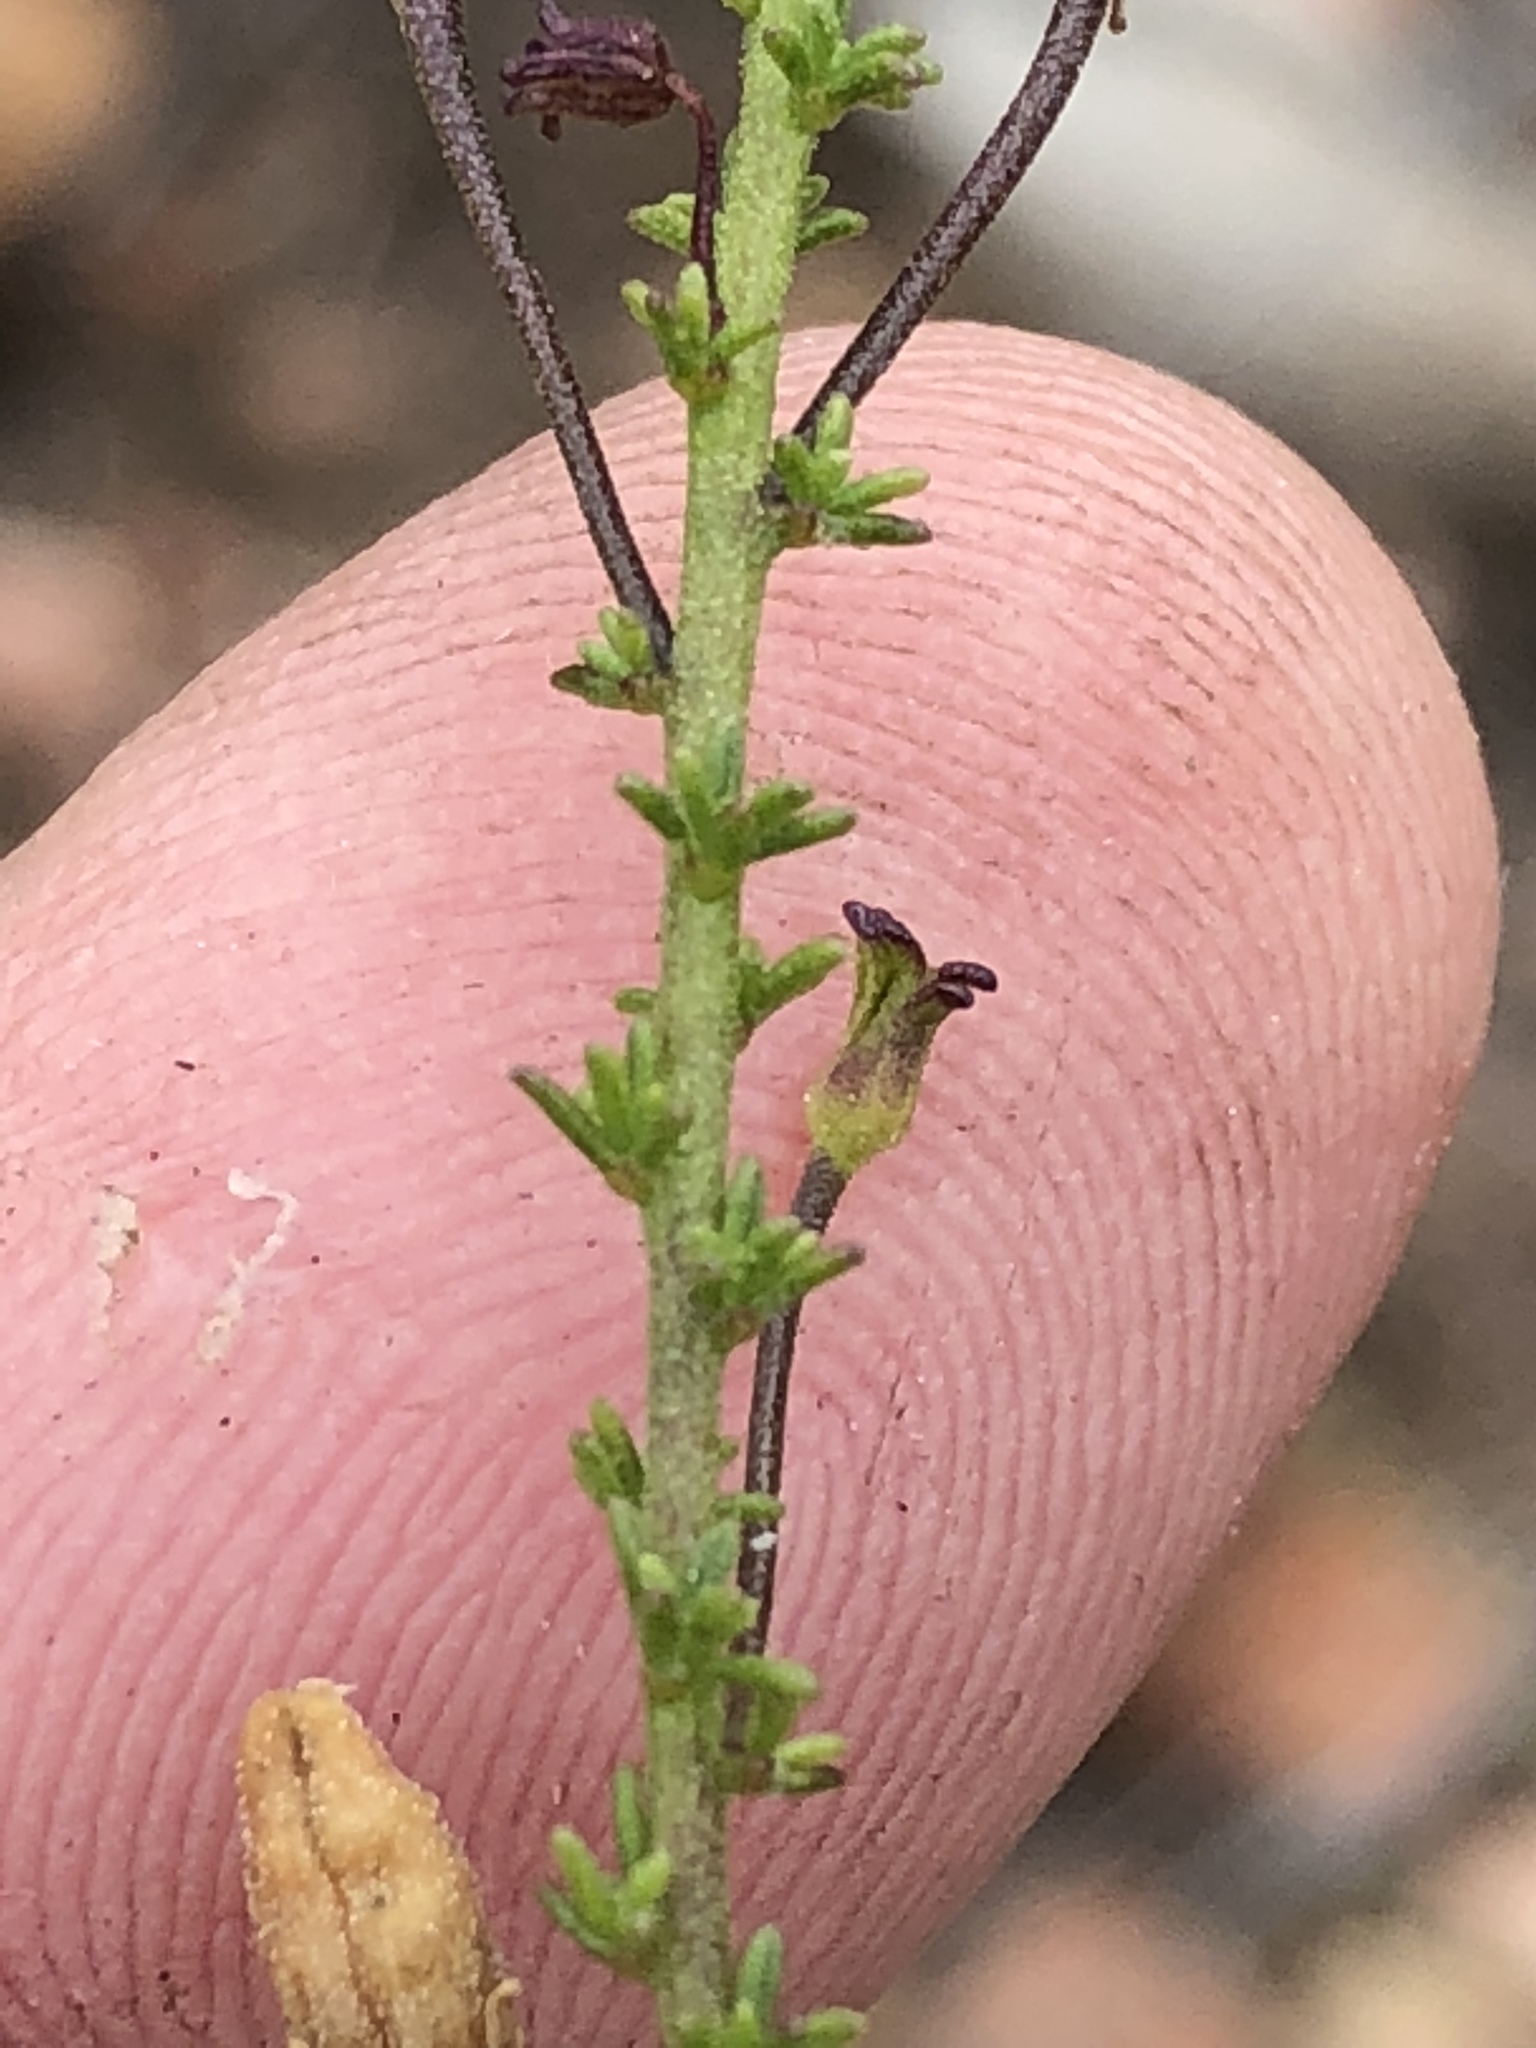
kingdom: Plantae
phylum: Tracheophyta
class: Magnoliopsida
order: Lamiales
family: Scrophulariaceae
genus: Jamesbrittenia
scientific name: Jamesbrittenia aspalathoides
